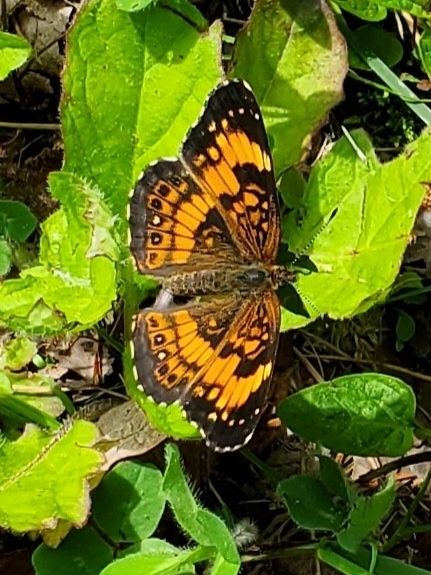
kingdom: Animalia
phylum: Arthropoda
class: Insecta
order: Lepidoptera
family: Nymphalidae
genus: Chlosyne
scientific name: Chlosyne nycteis
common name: Silvery checkerspot
